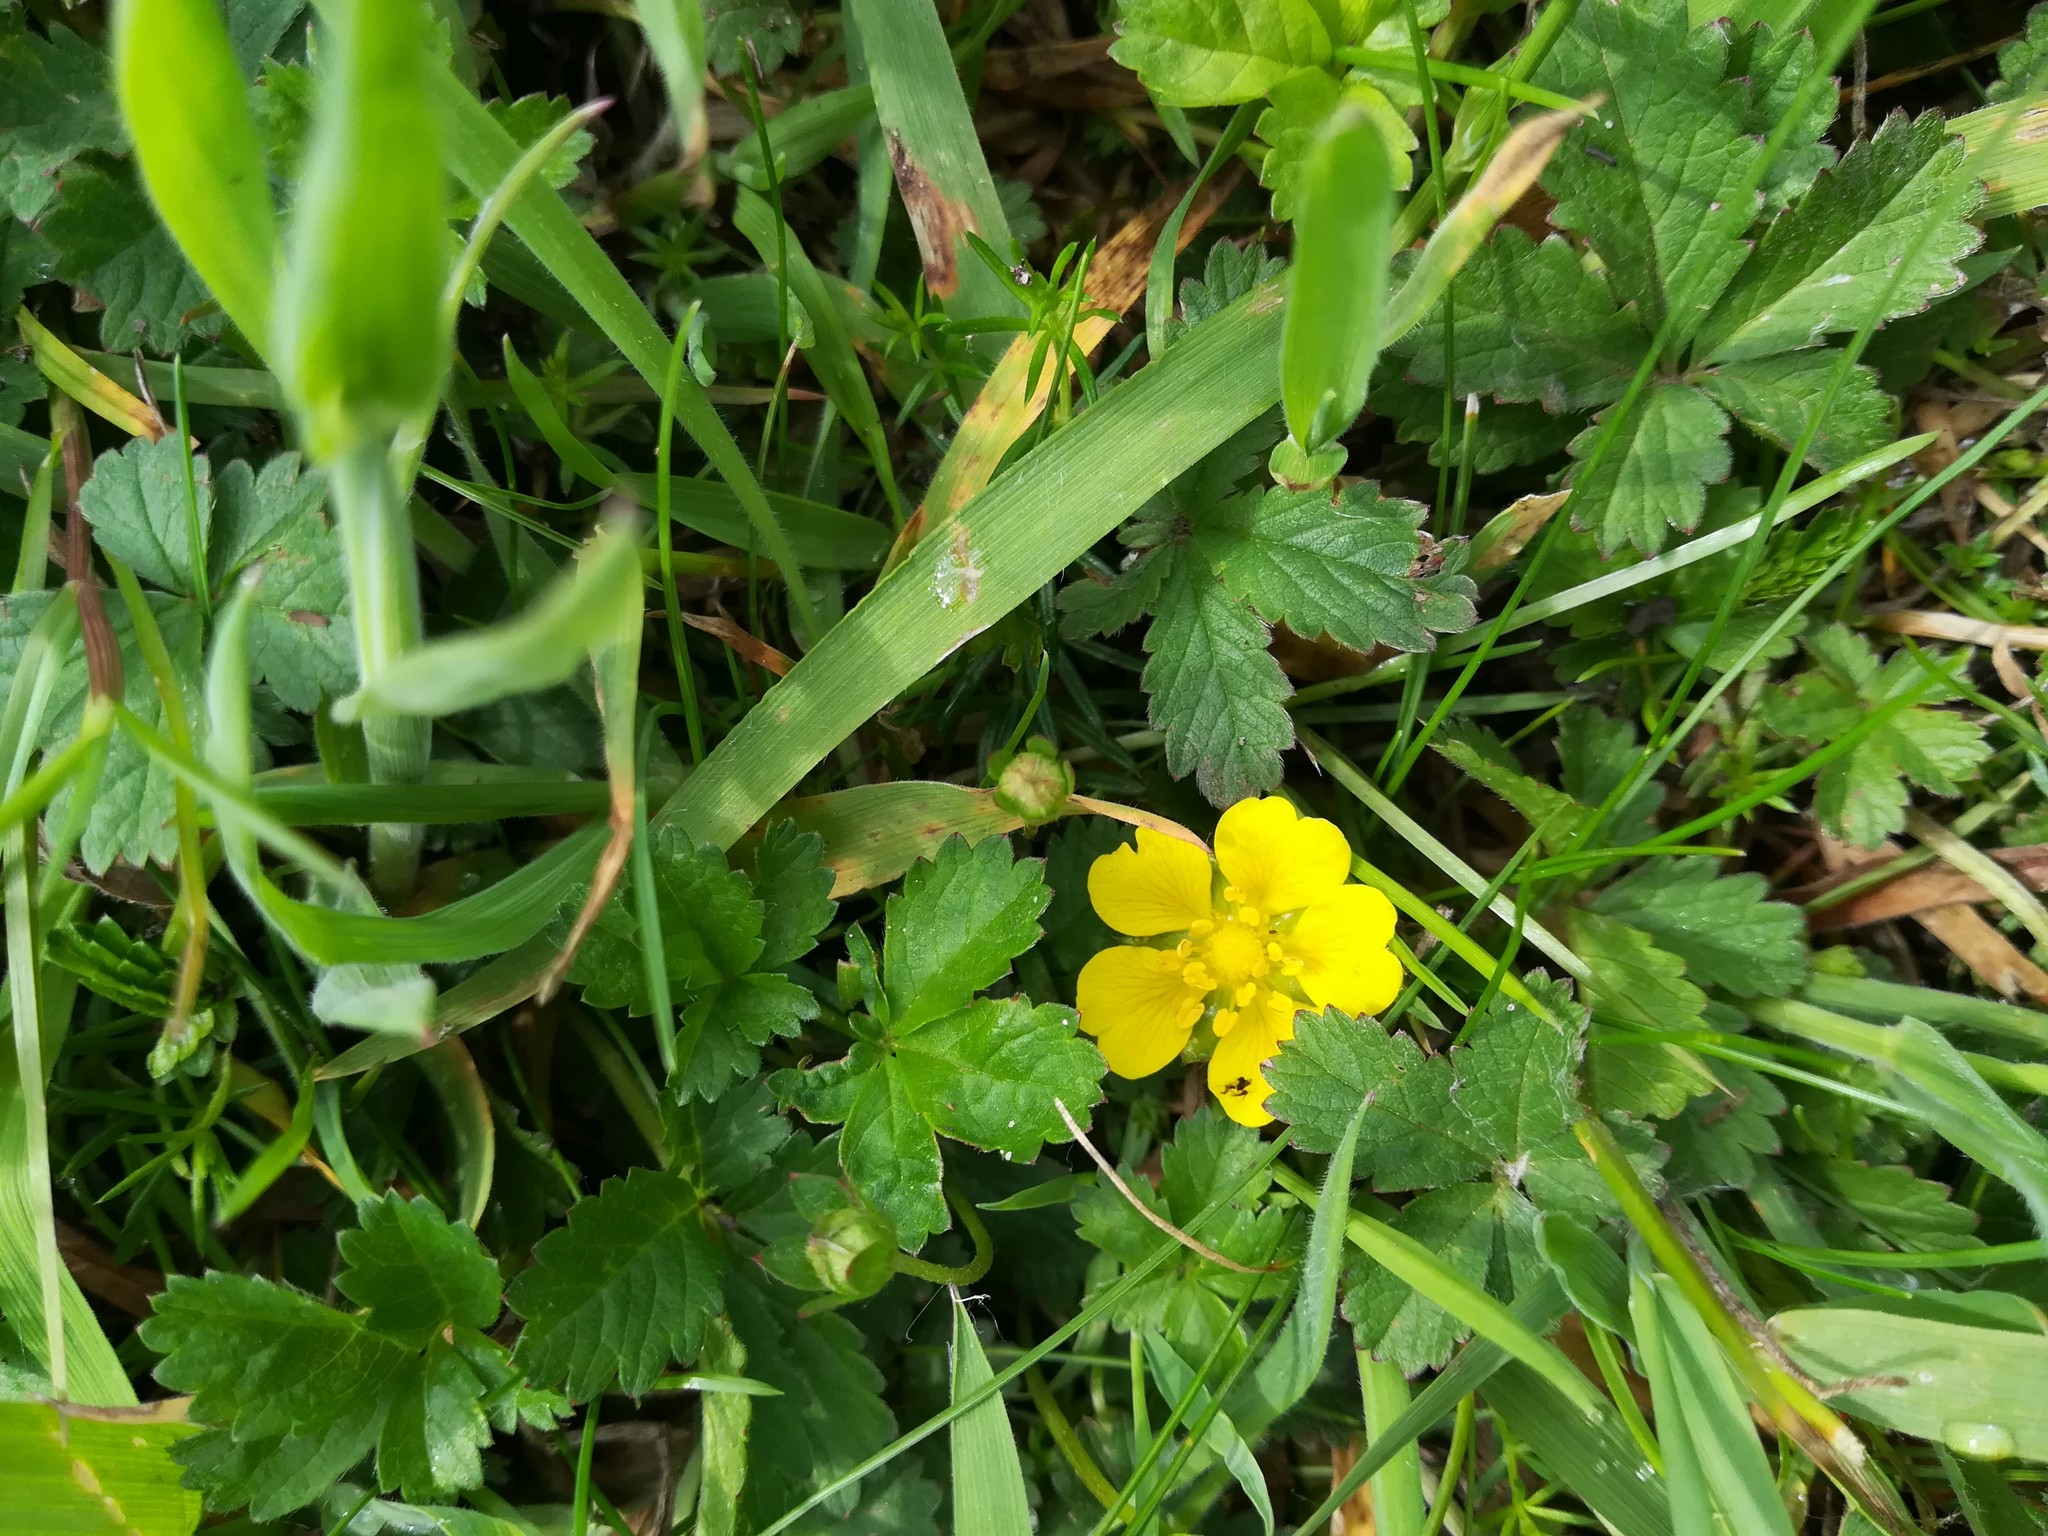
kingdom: Plantae
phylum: Tracheophyta
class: Magnoliopsida
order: Rosales
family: Rosaceae
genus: Potentilla
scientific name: Potentilla reptans
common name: Creeping cinquefoil
